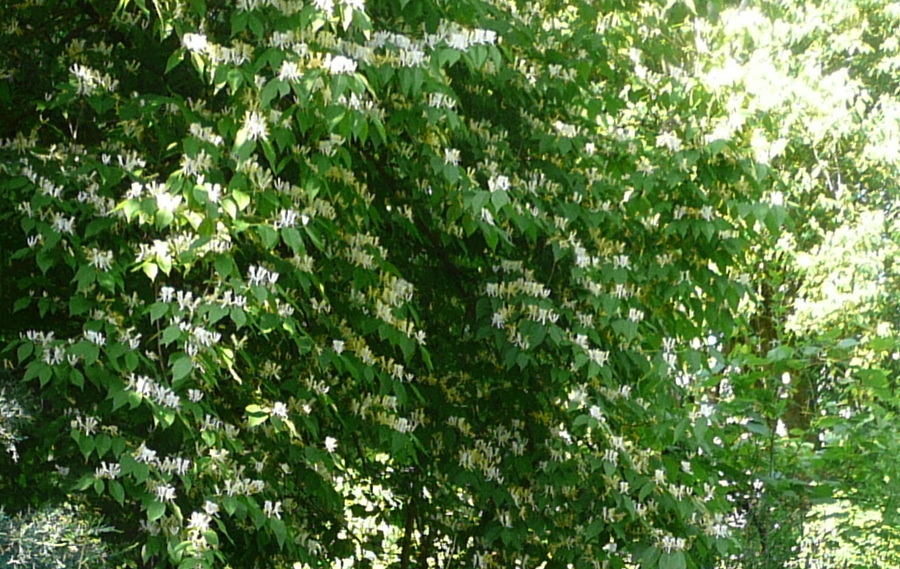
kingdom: Plantae
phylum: Tracheophyta
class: Magnoliopsida
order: Dipsacales
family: Caprifoliaceae
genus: Lonicera
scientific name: Lonicera maackii
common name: Amur honeysuckle
